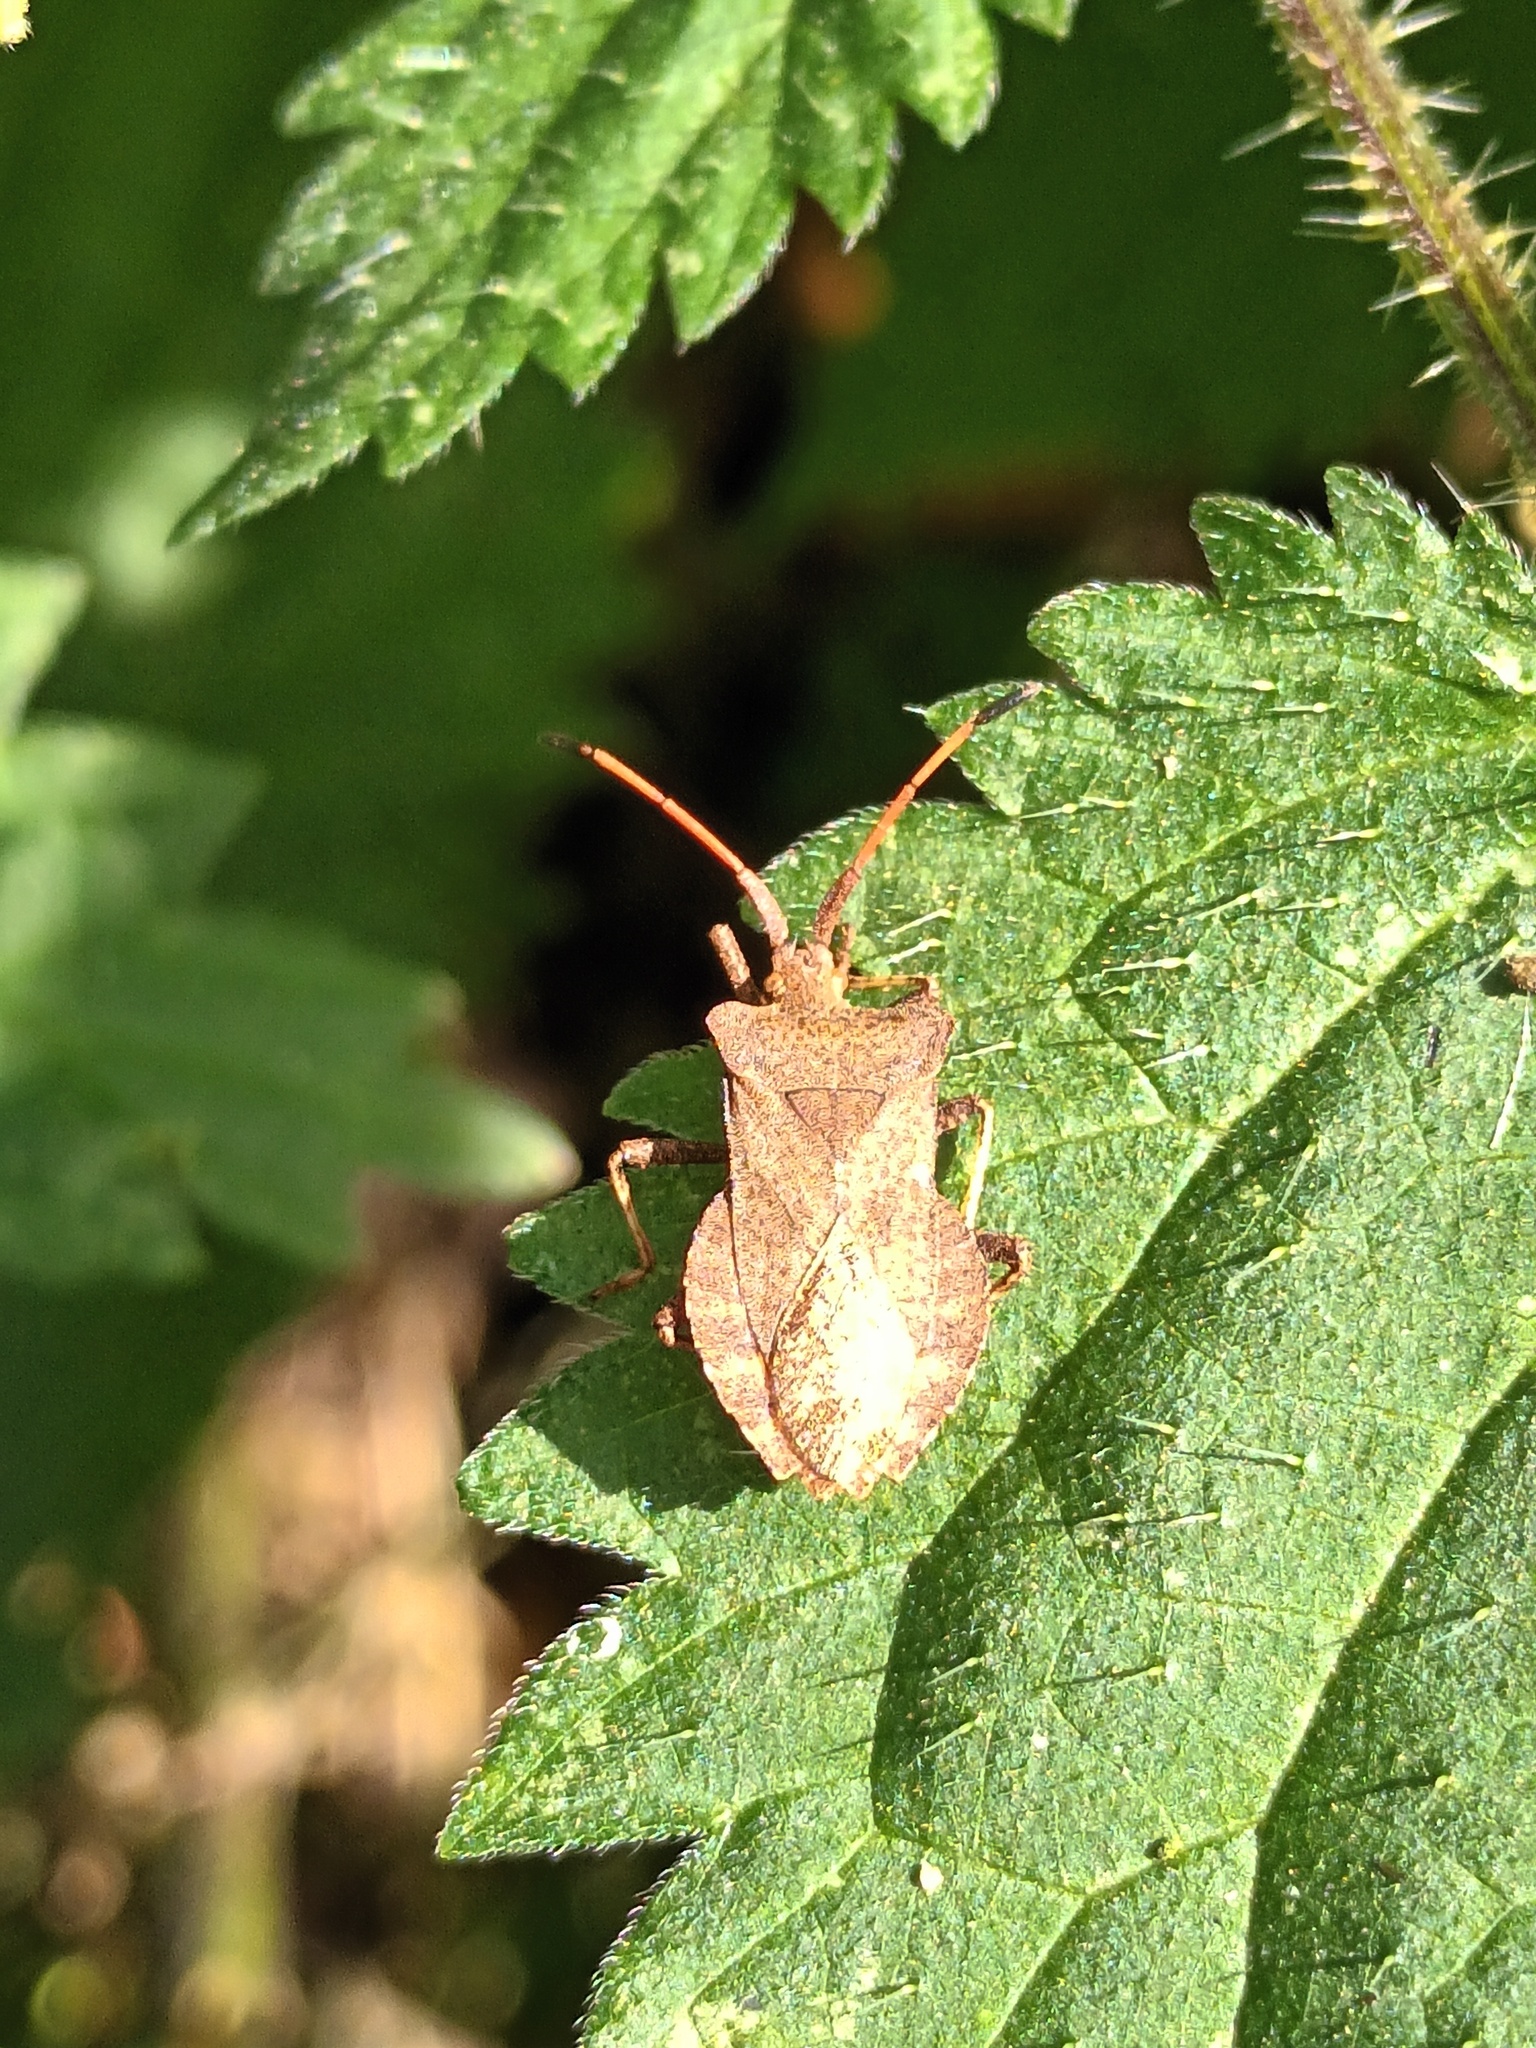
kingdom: Animalia
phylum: Arthropoda
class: Insecta
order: Hemiptera
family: Coreidae
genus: Coreus
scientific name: Coreus marginatus
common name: Dock bug
